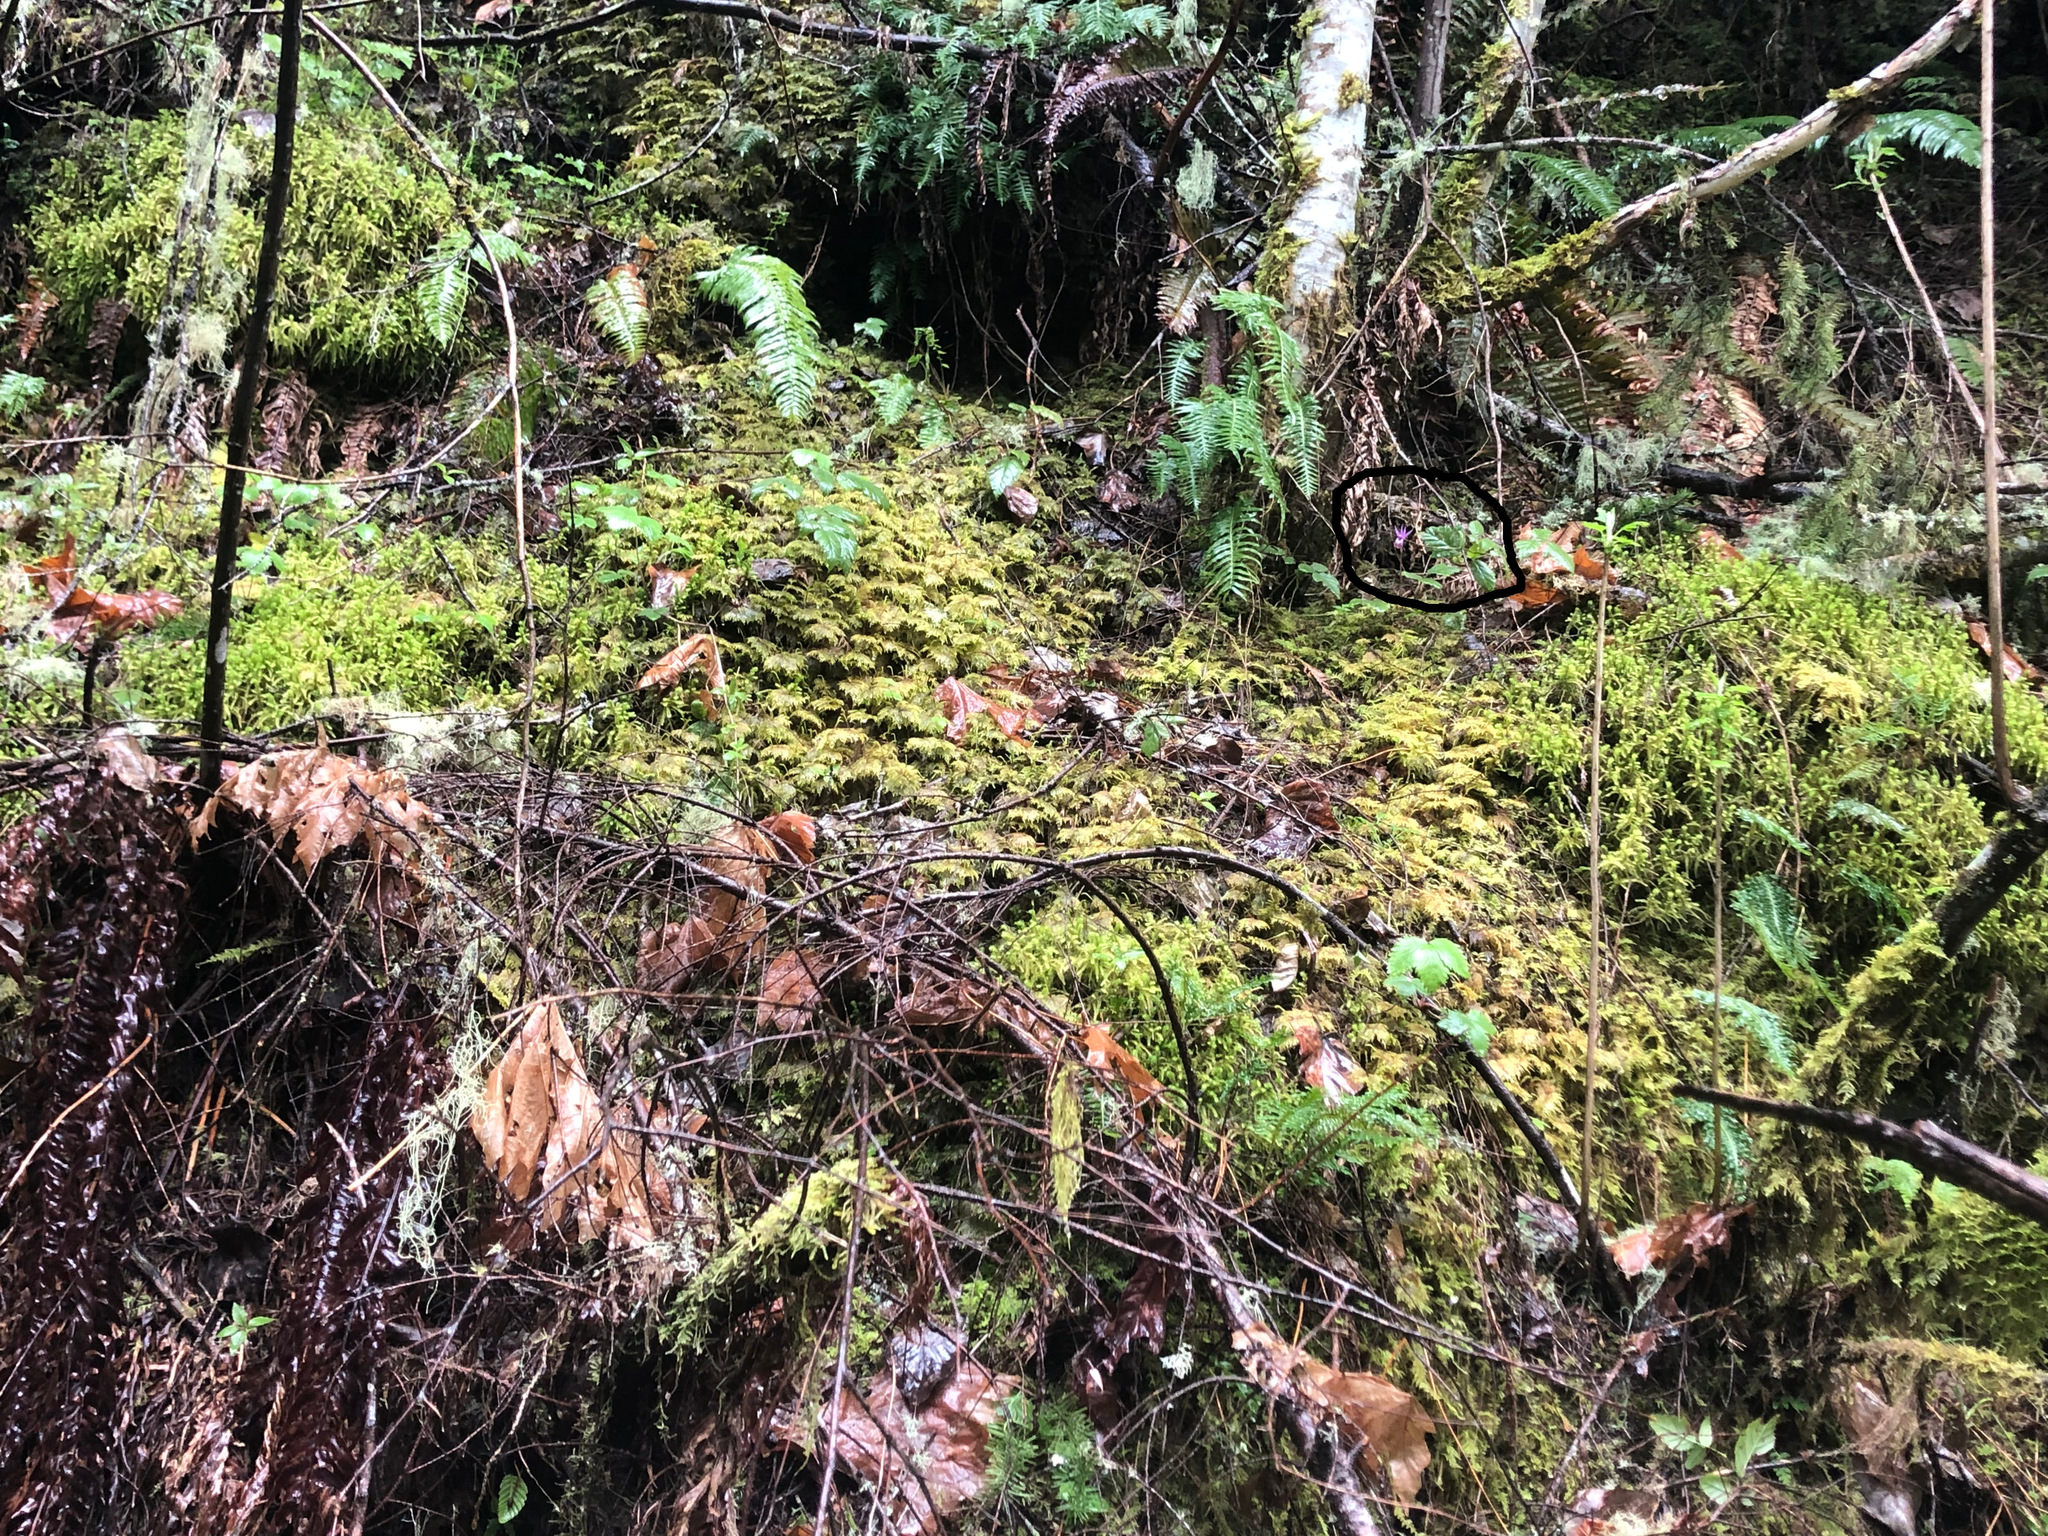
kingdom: Plantae
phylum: Tracheophyta
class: Liliopsida
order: Asparagales
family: Orchidaceae
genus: Calypso
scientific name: Calypso bulbosa
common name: Calypso
